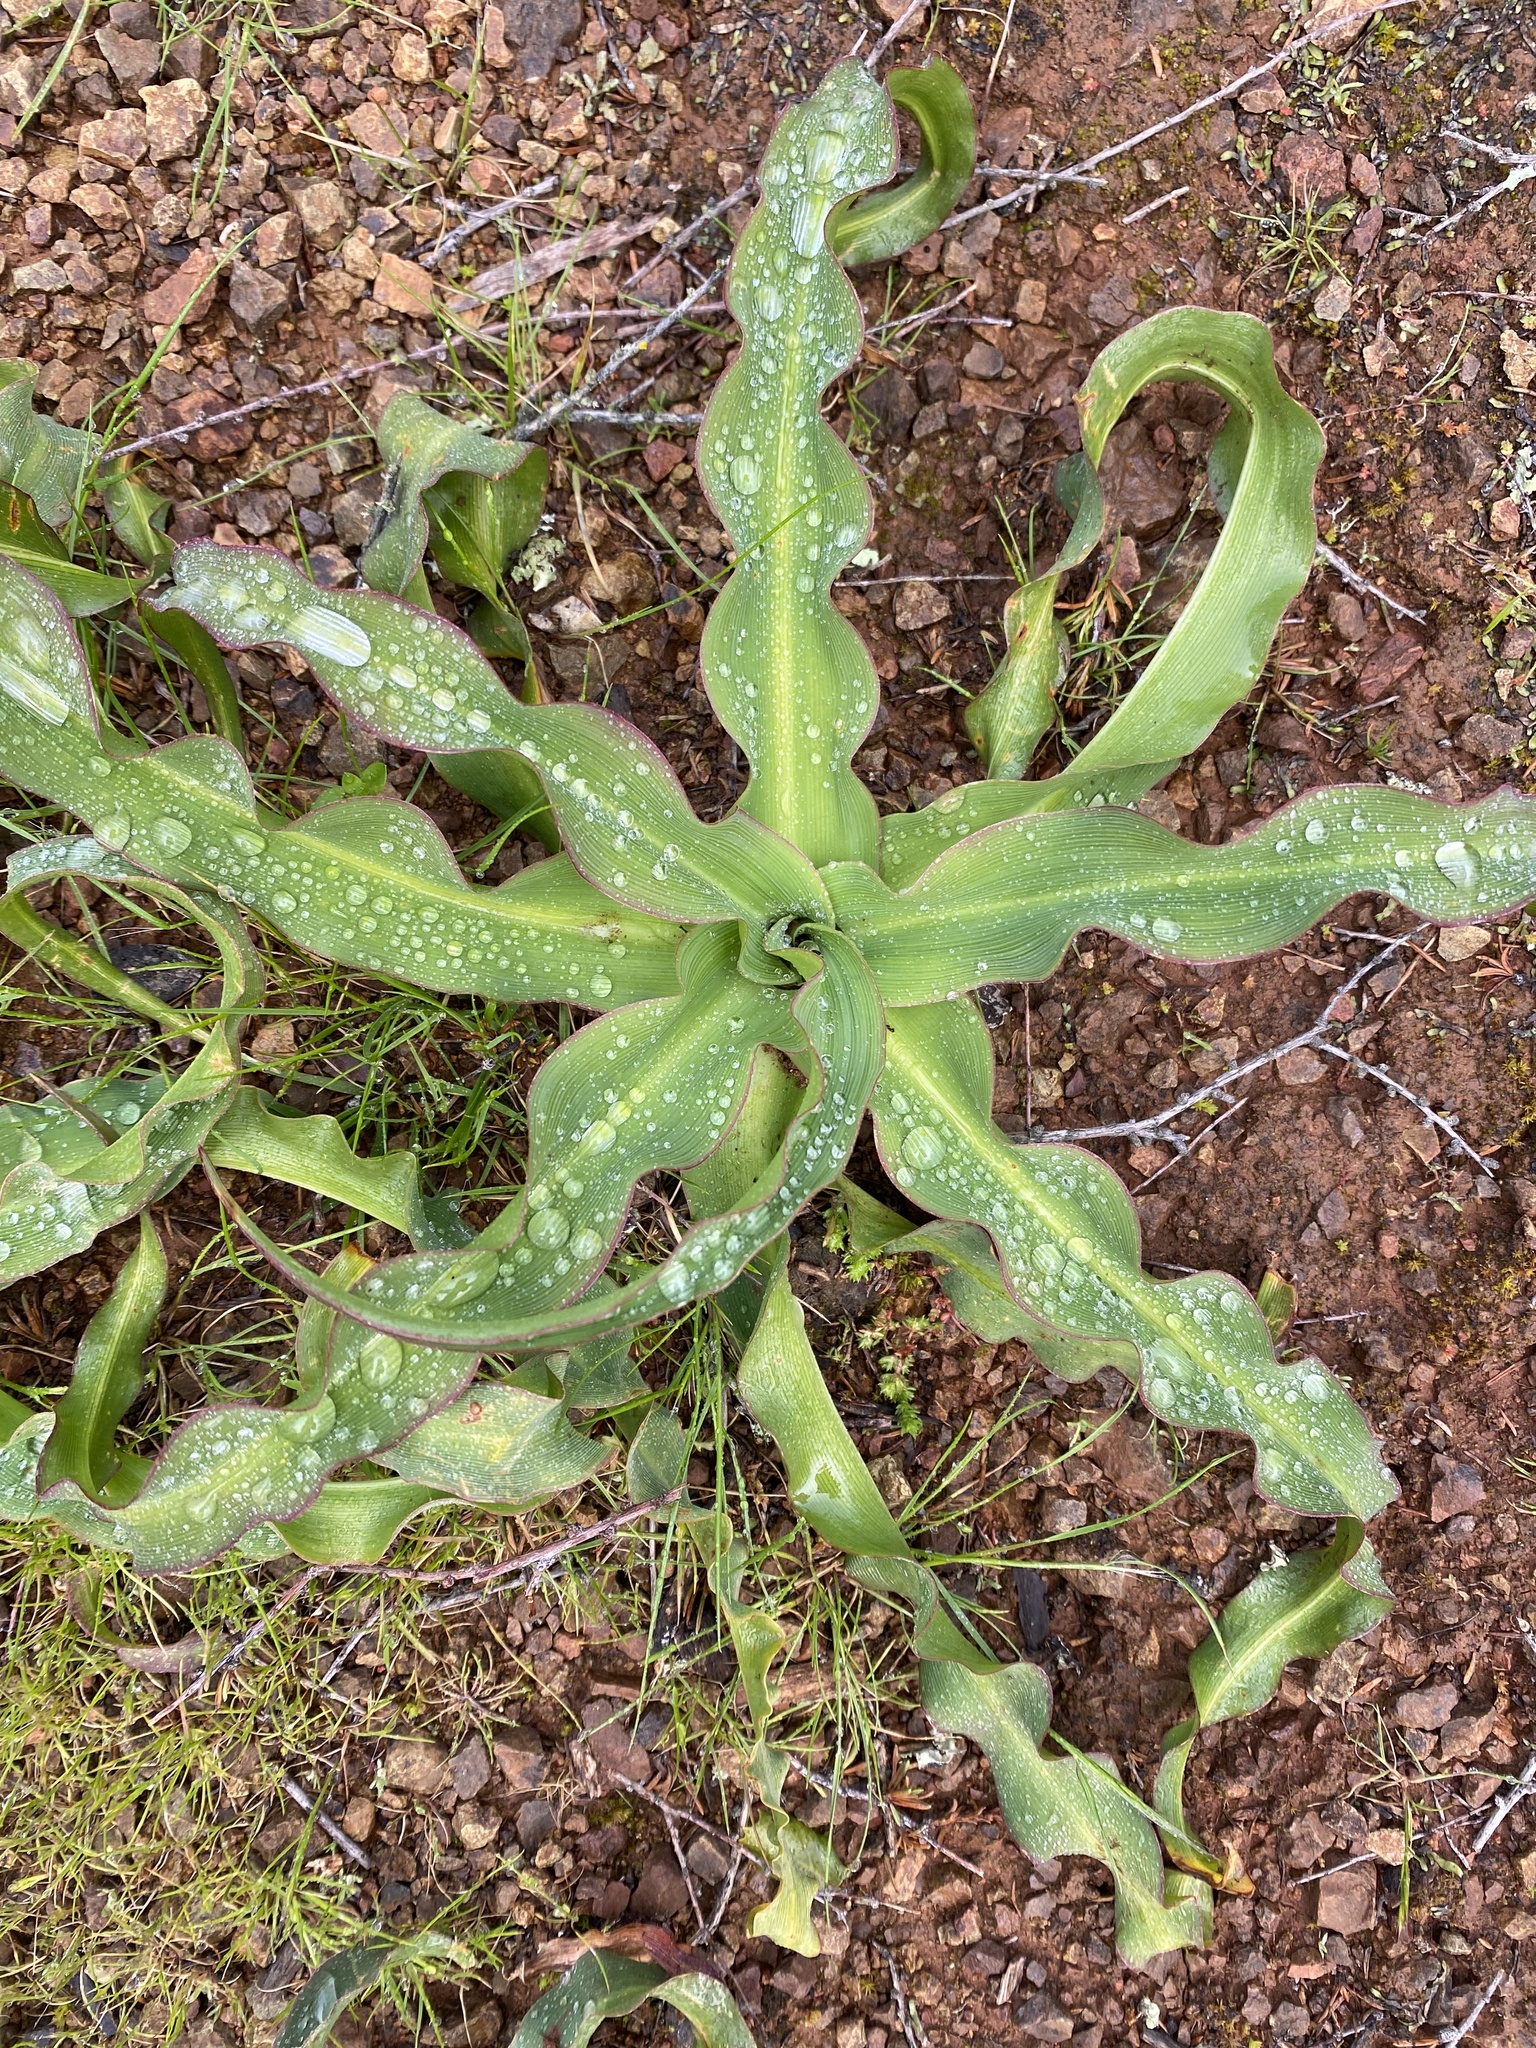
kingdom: Plantae
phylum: Tracheophyta
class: Liliopsida
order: Asparagales
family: Asparagaceae
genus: Chlorogalum
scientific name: Chlorogalum pomeridianum
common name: Amole
